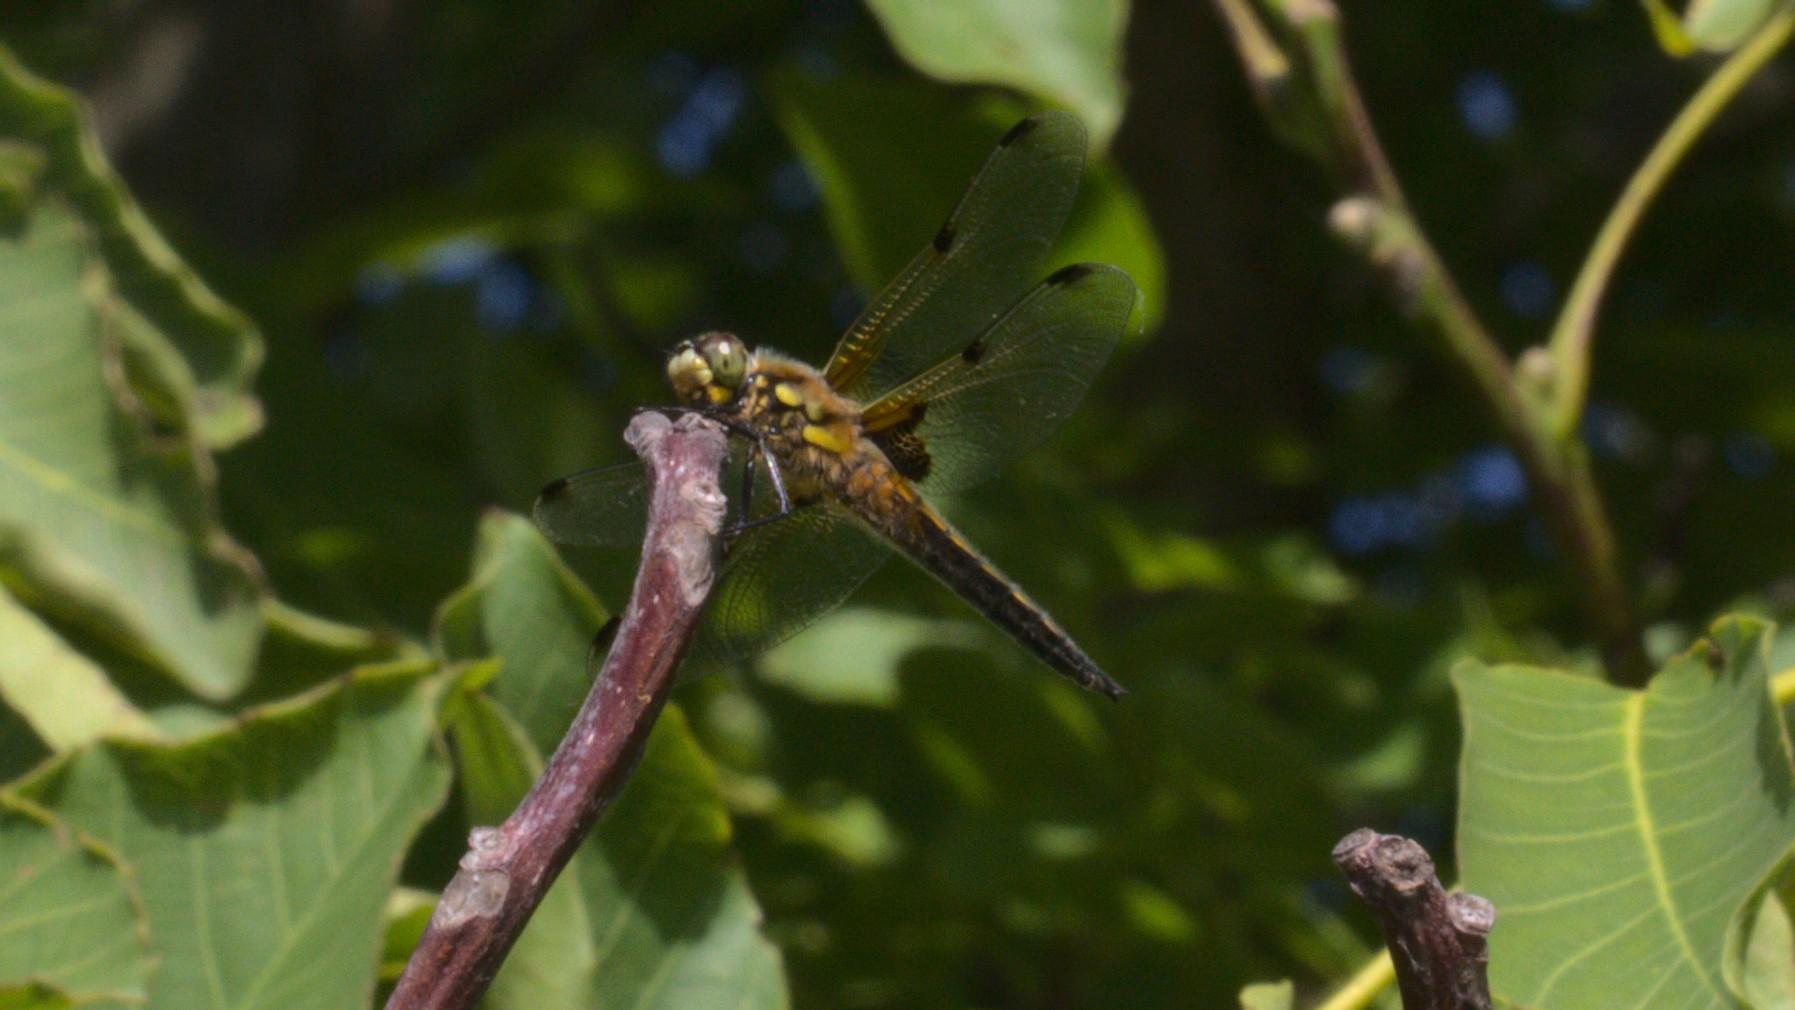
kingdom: Animalia
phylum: Arthropoda
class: Insecta
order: Odonata
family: Libellulidae
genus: Libellula
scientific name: Libellula quadrimaculata
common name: Four-spotted chaser
